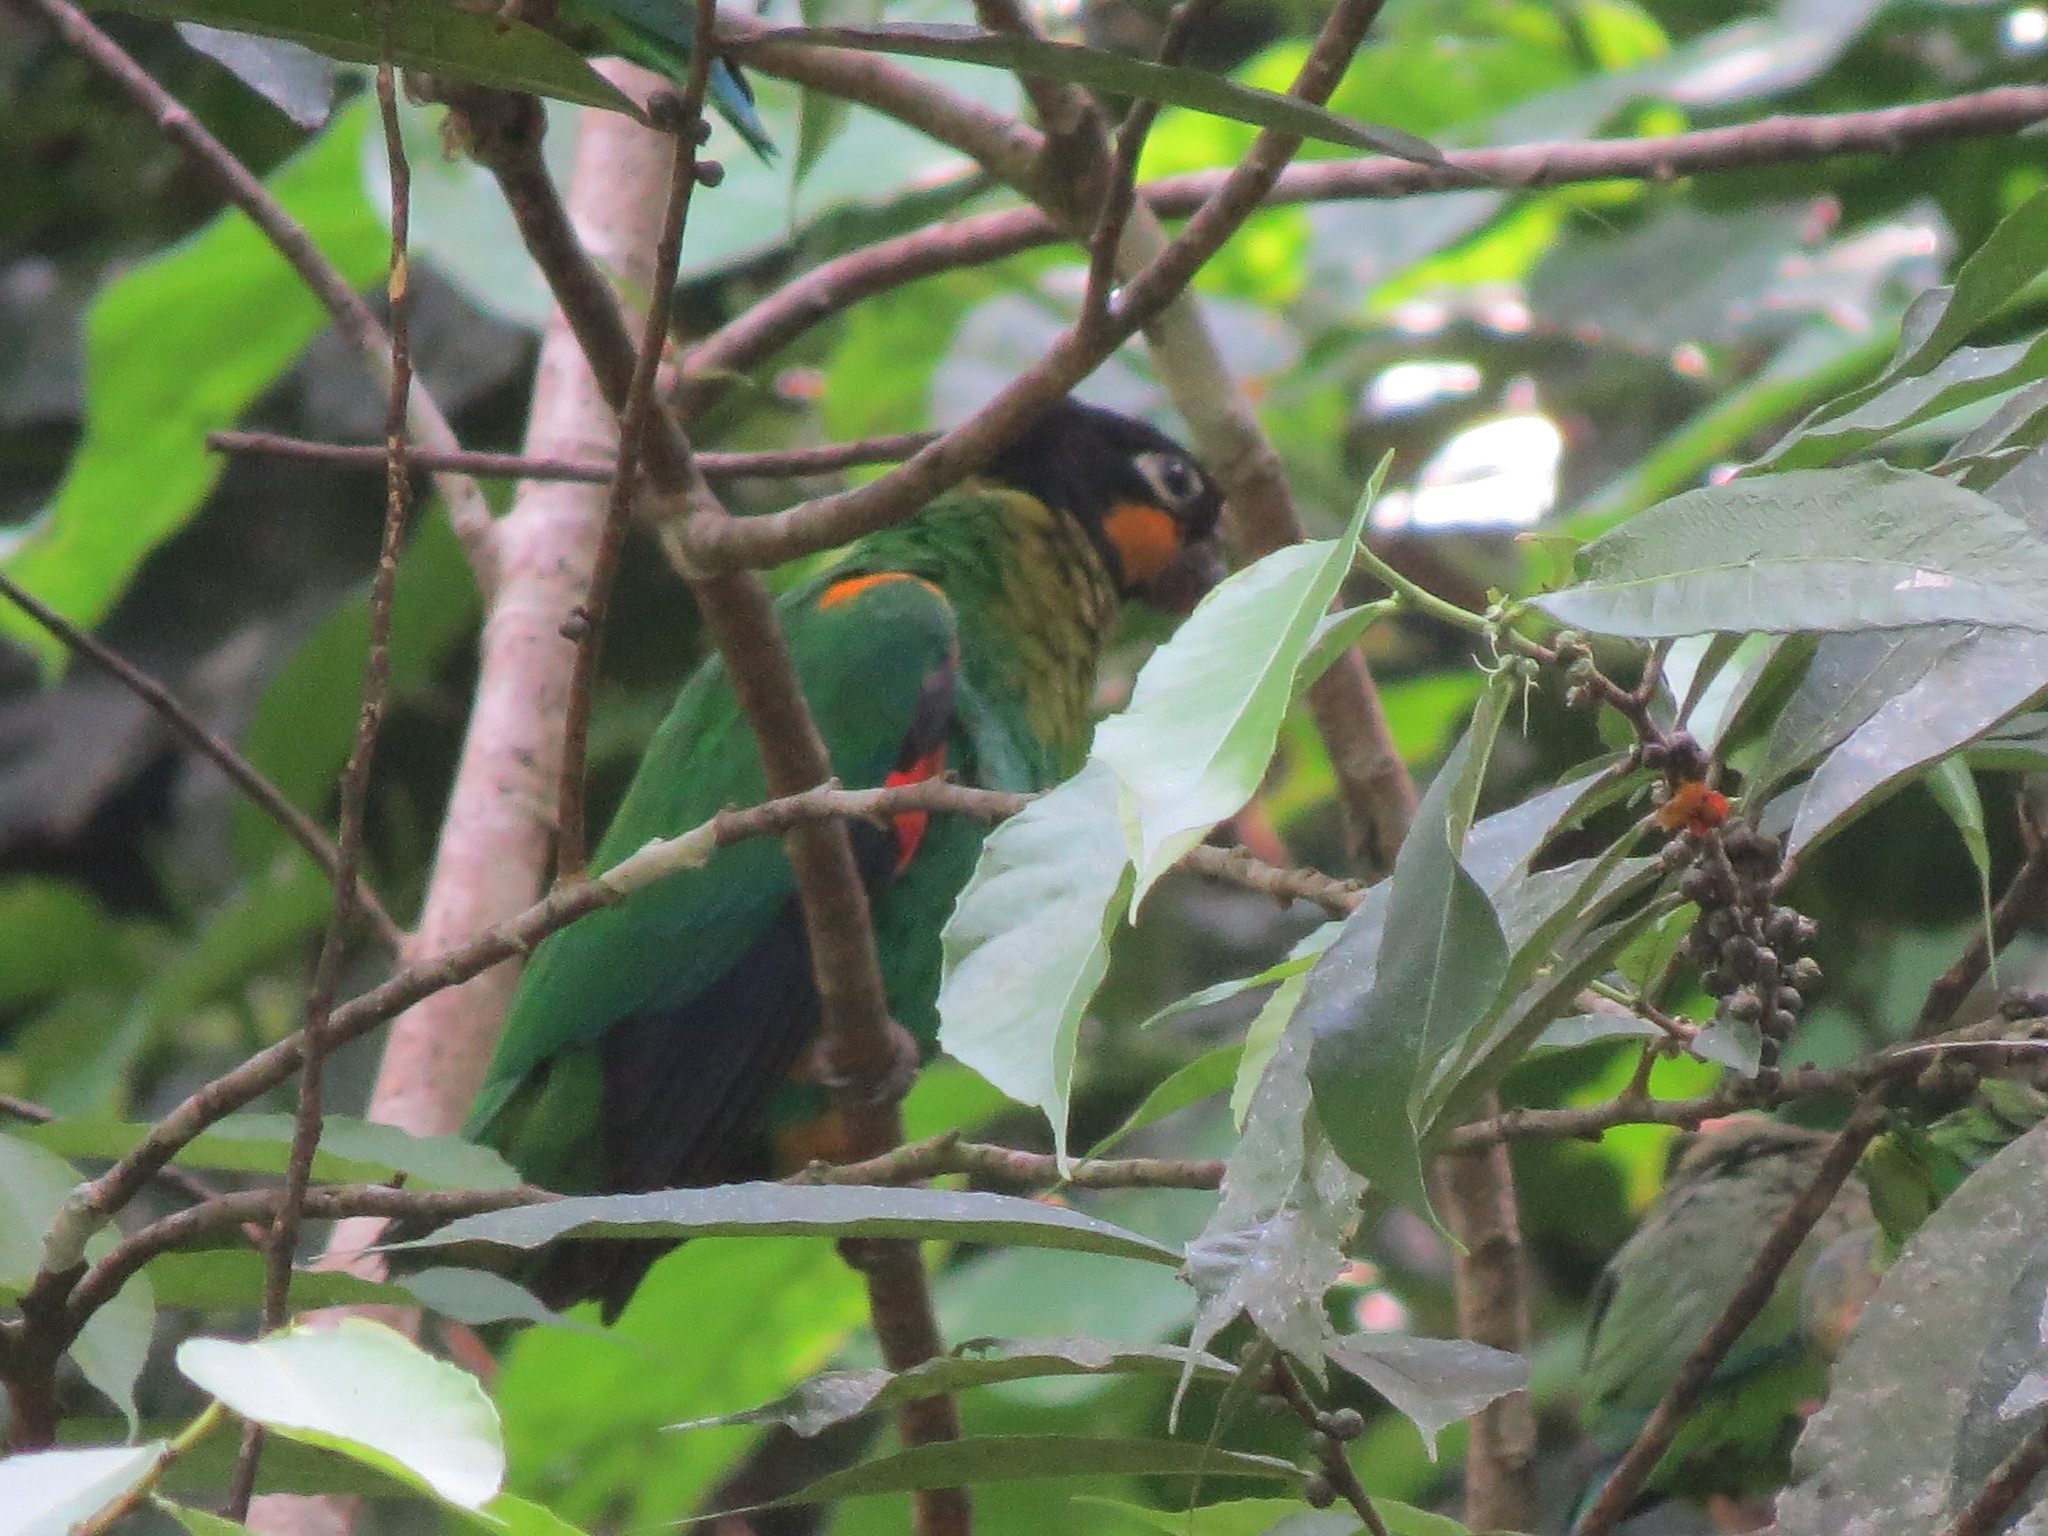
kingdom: Animalia
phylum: Chordata
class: Aves
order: Psittaciformes
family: Psittacidae
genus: Pionopsitta
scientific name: Pionopsitta barrabandi
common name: Orange-cheeked parrot
